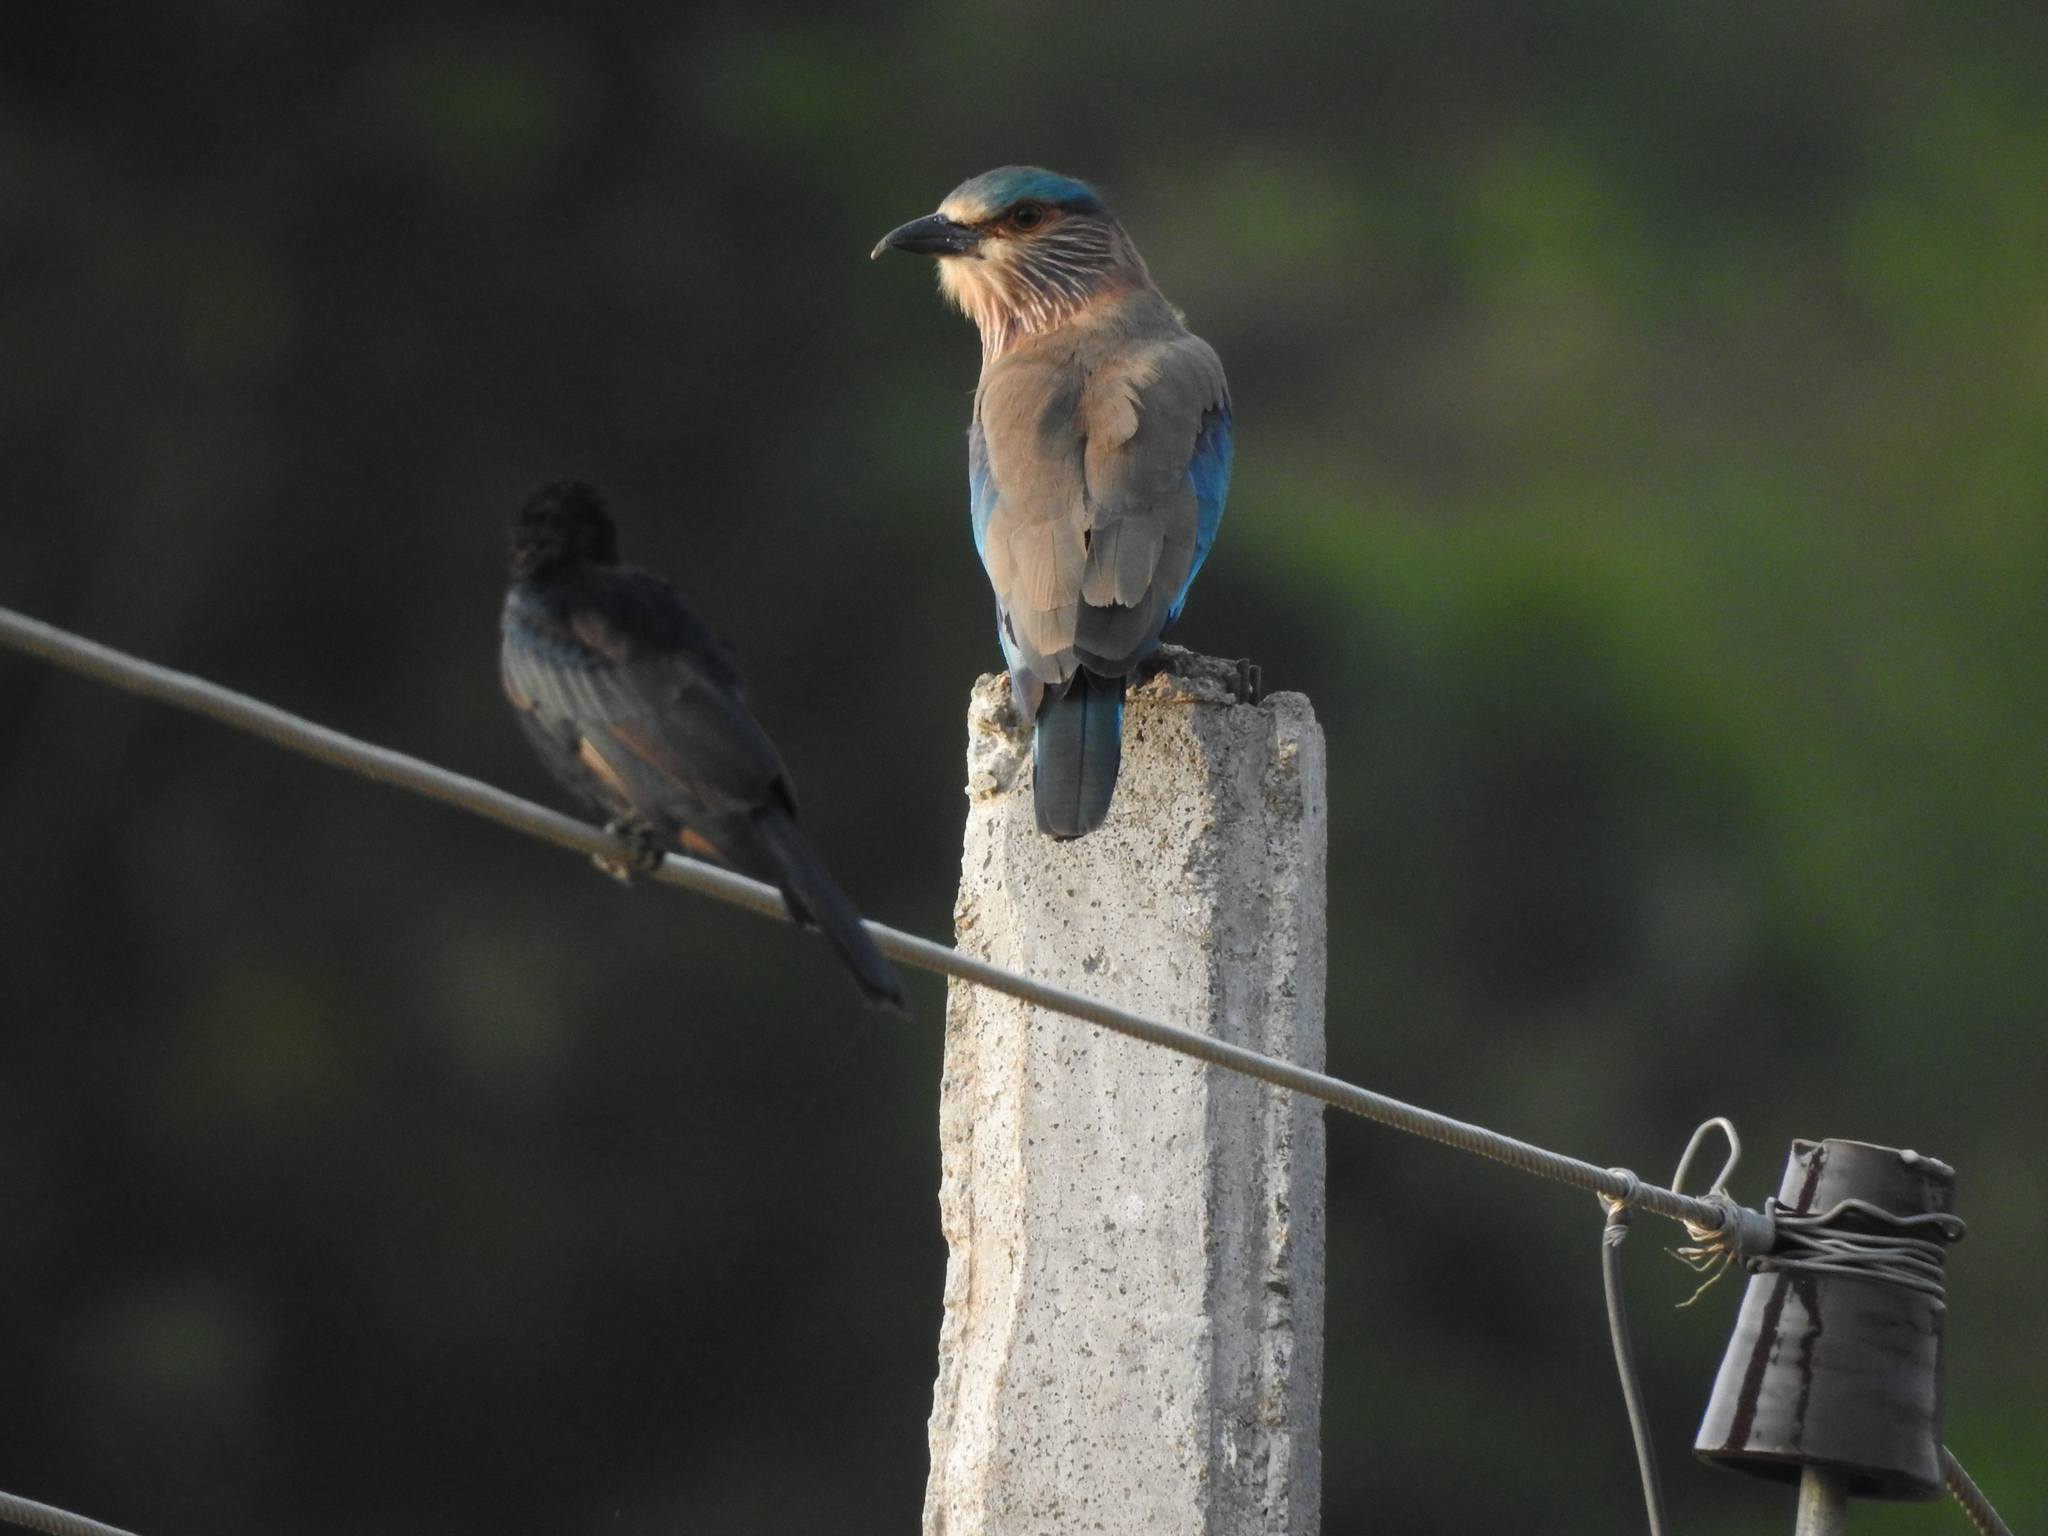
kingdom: Animalia
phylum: Chordata
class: Aves
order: Coraciiformes
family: Coraciidae
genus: Coracias
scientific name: Coracias benghalensis
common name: Indian roller
